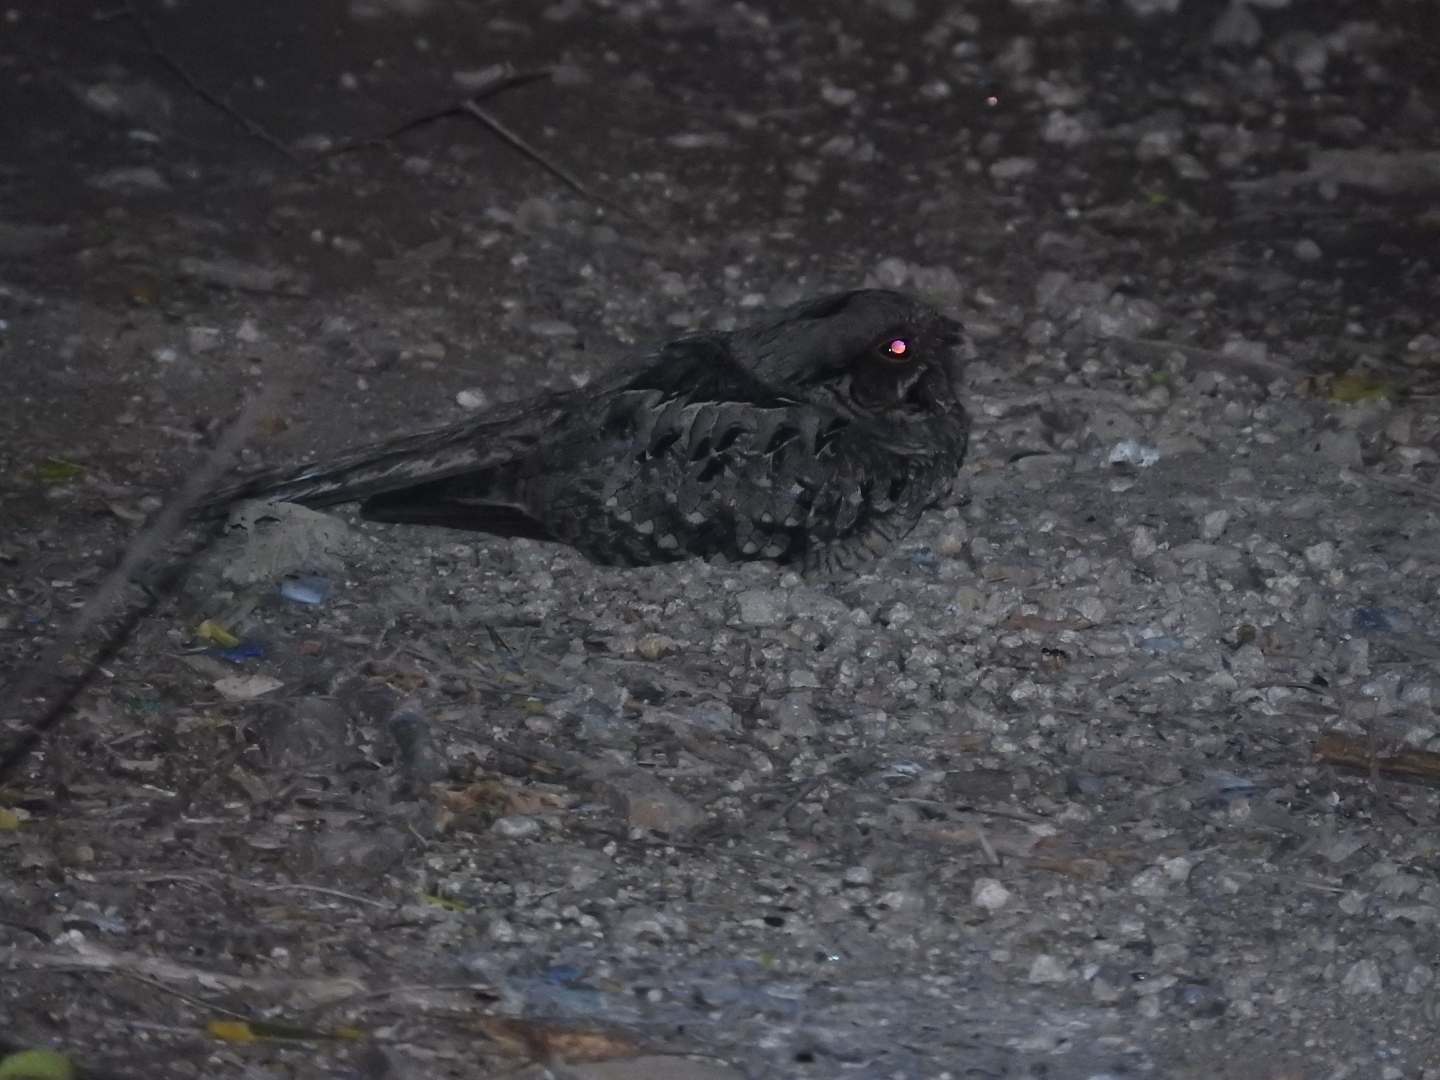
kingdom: Animalia
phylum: Chordata
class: Aves
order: Caprimulgiformes
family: Caprimulgidae
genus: Nyctidromus
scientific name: Nyctidromus albicollis
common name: Pauraque
